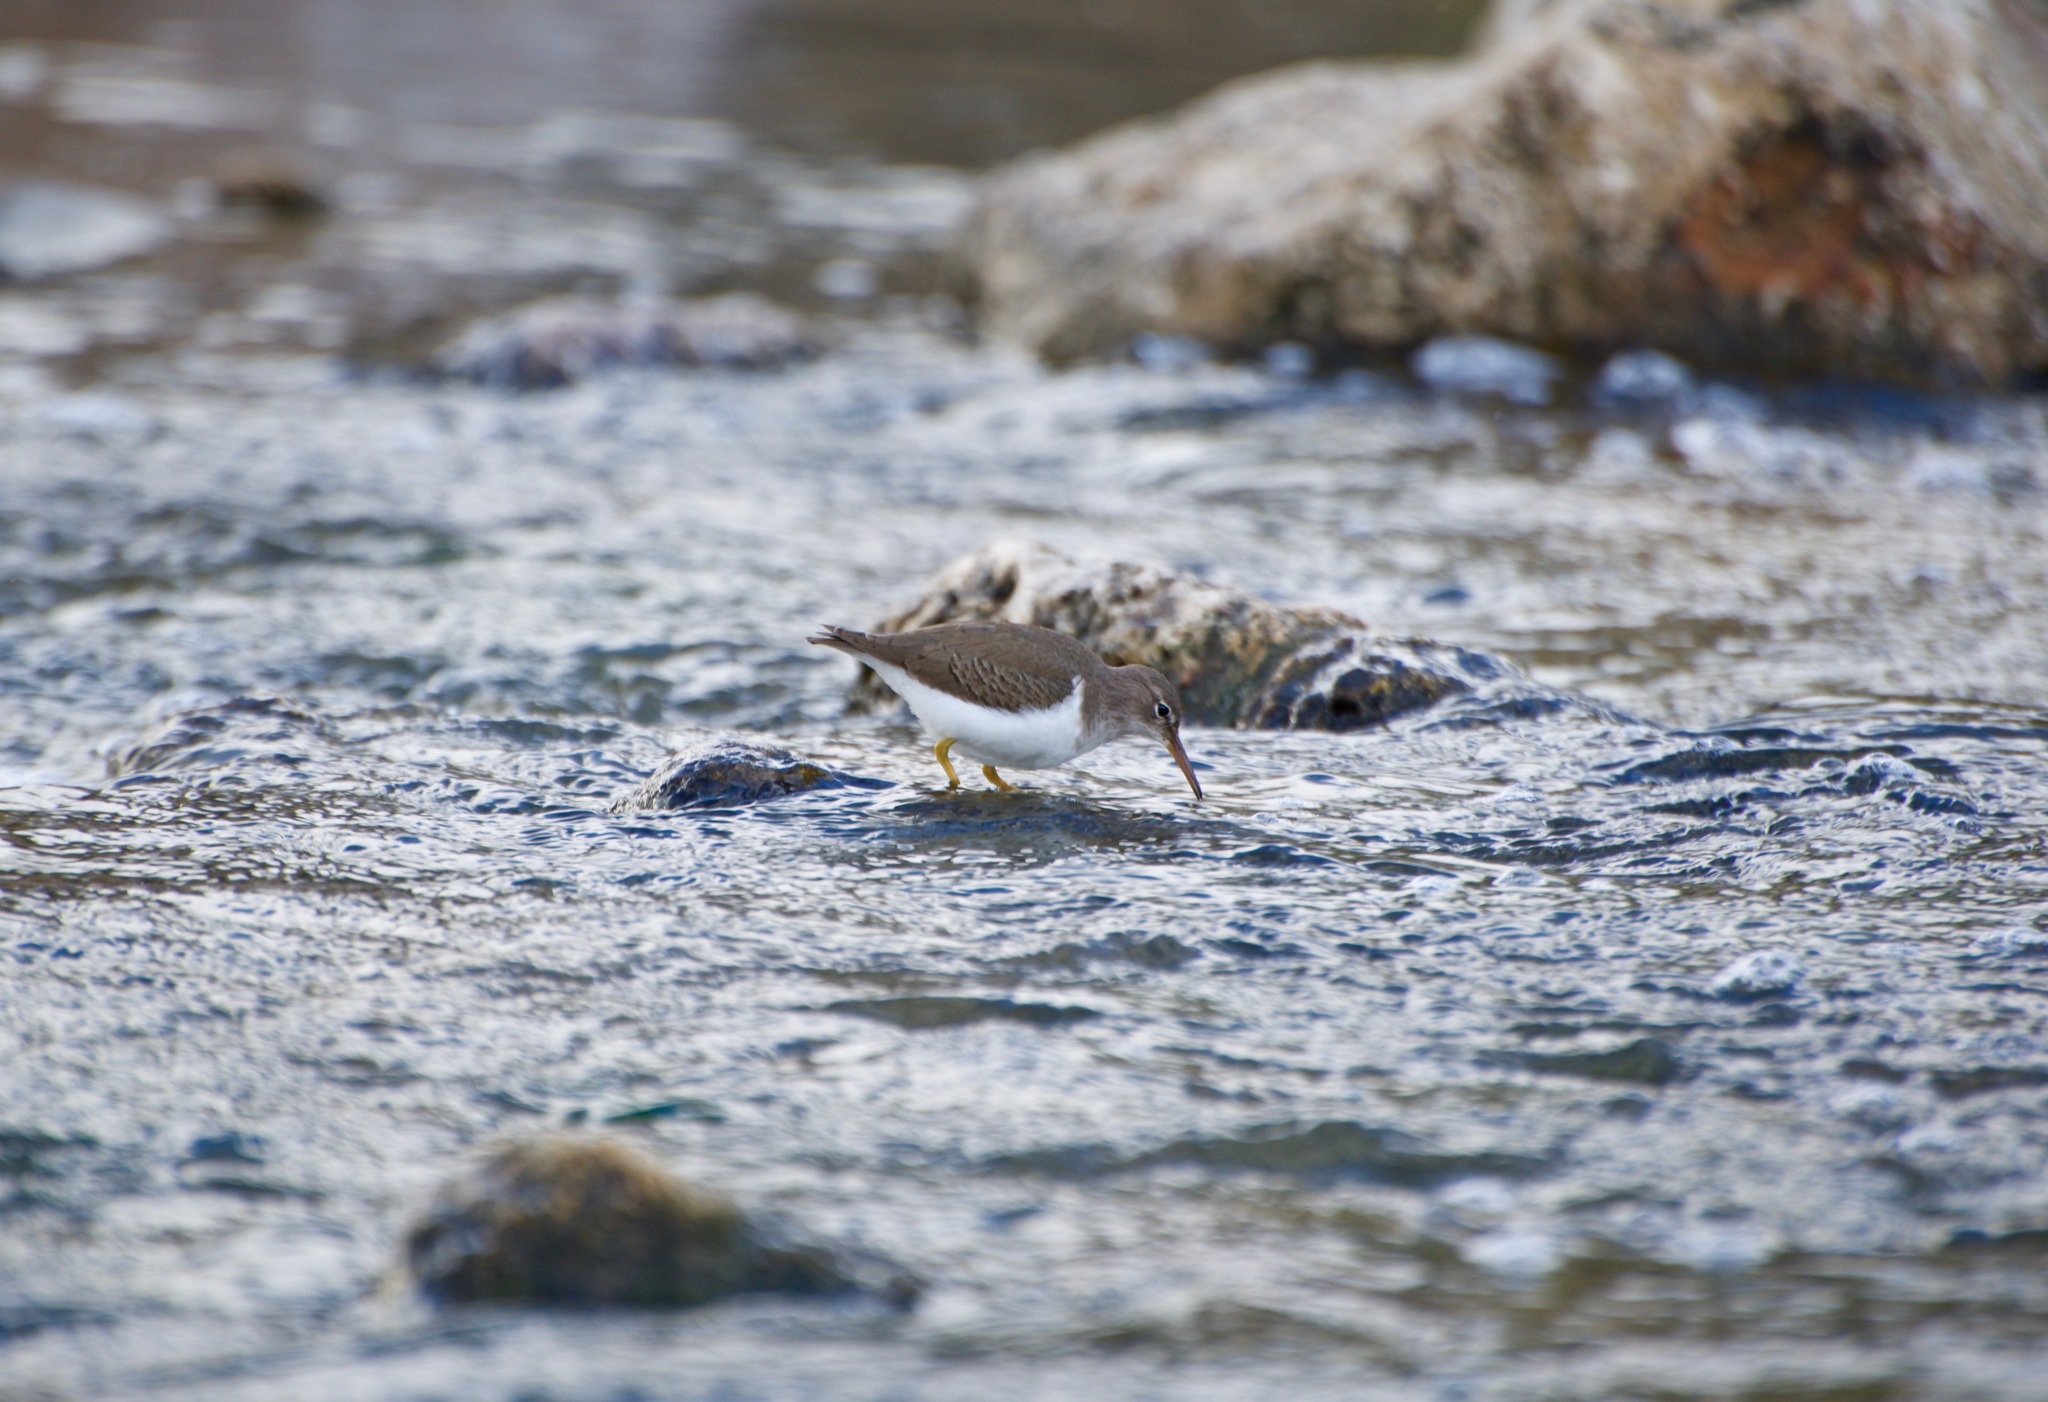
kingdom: Animalia
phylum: Chordata
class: Aves
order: Charadriiformes
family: Scolopacidae
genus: Actitis
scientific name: Actitis macularius
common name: Spotted sandpiper
